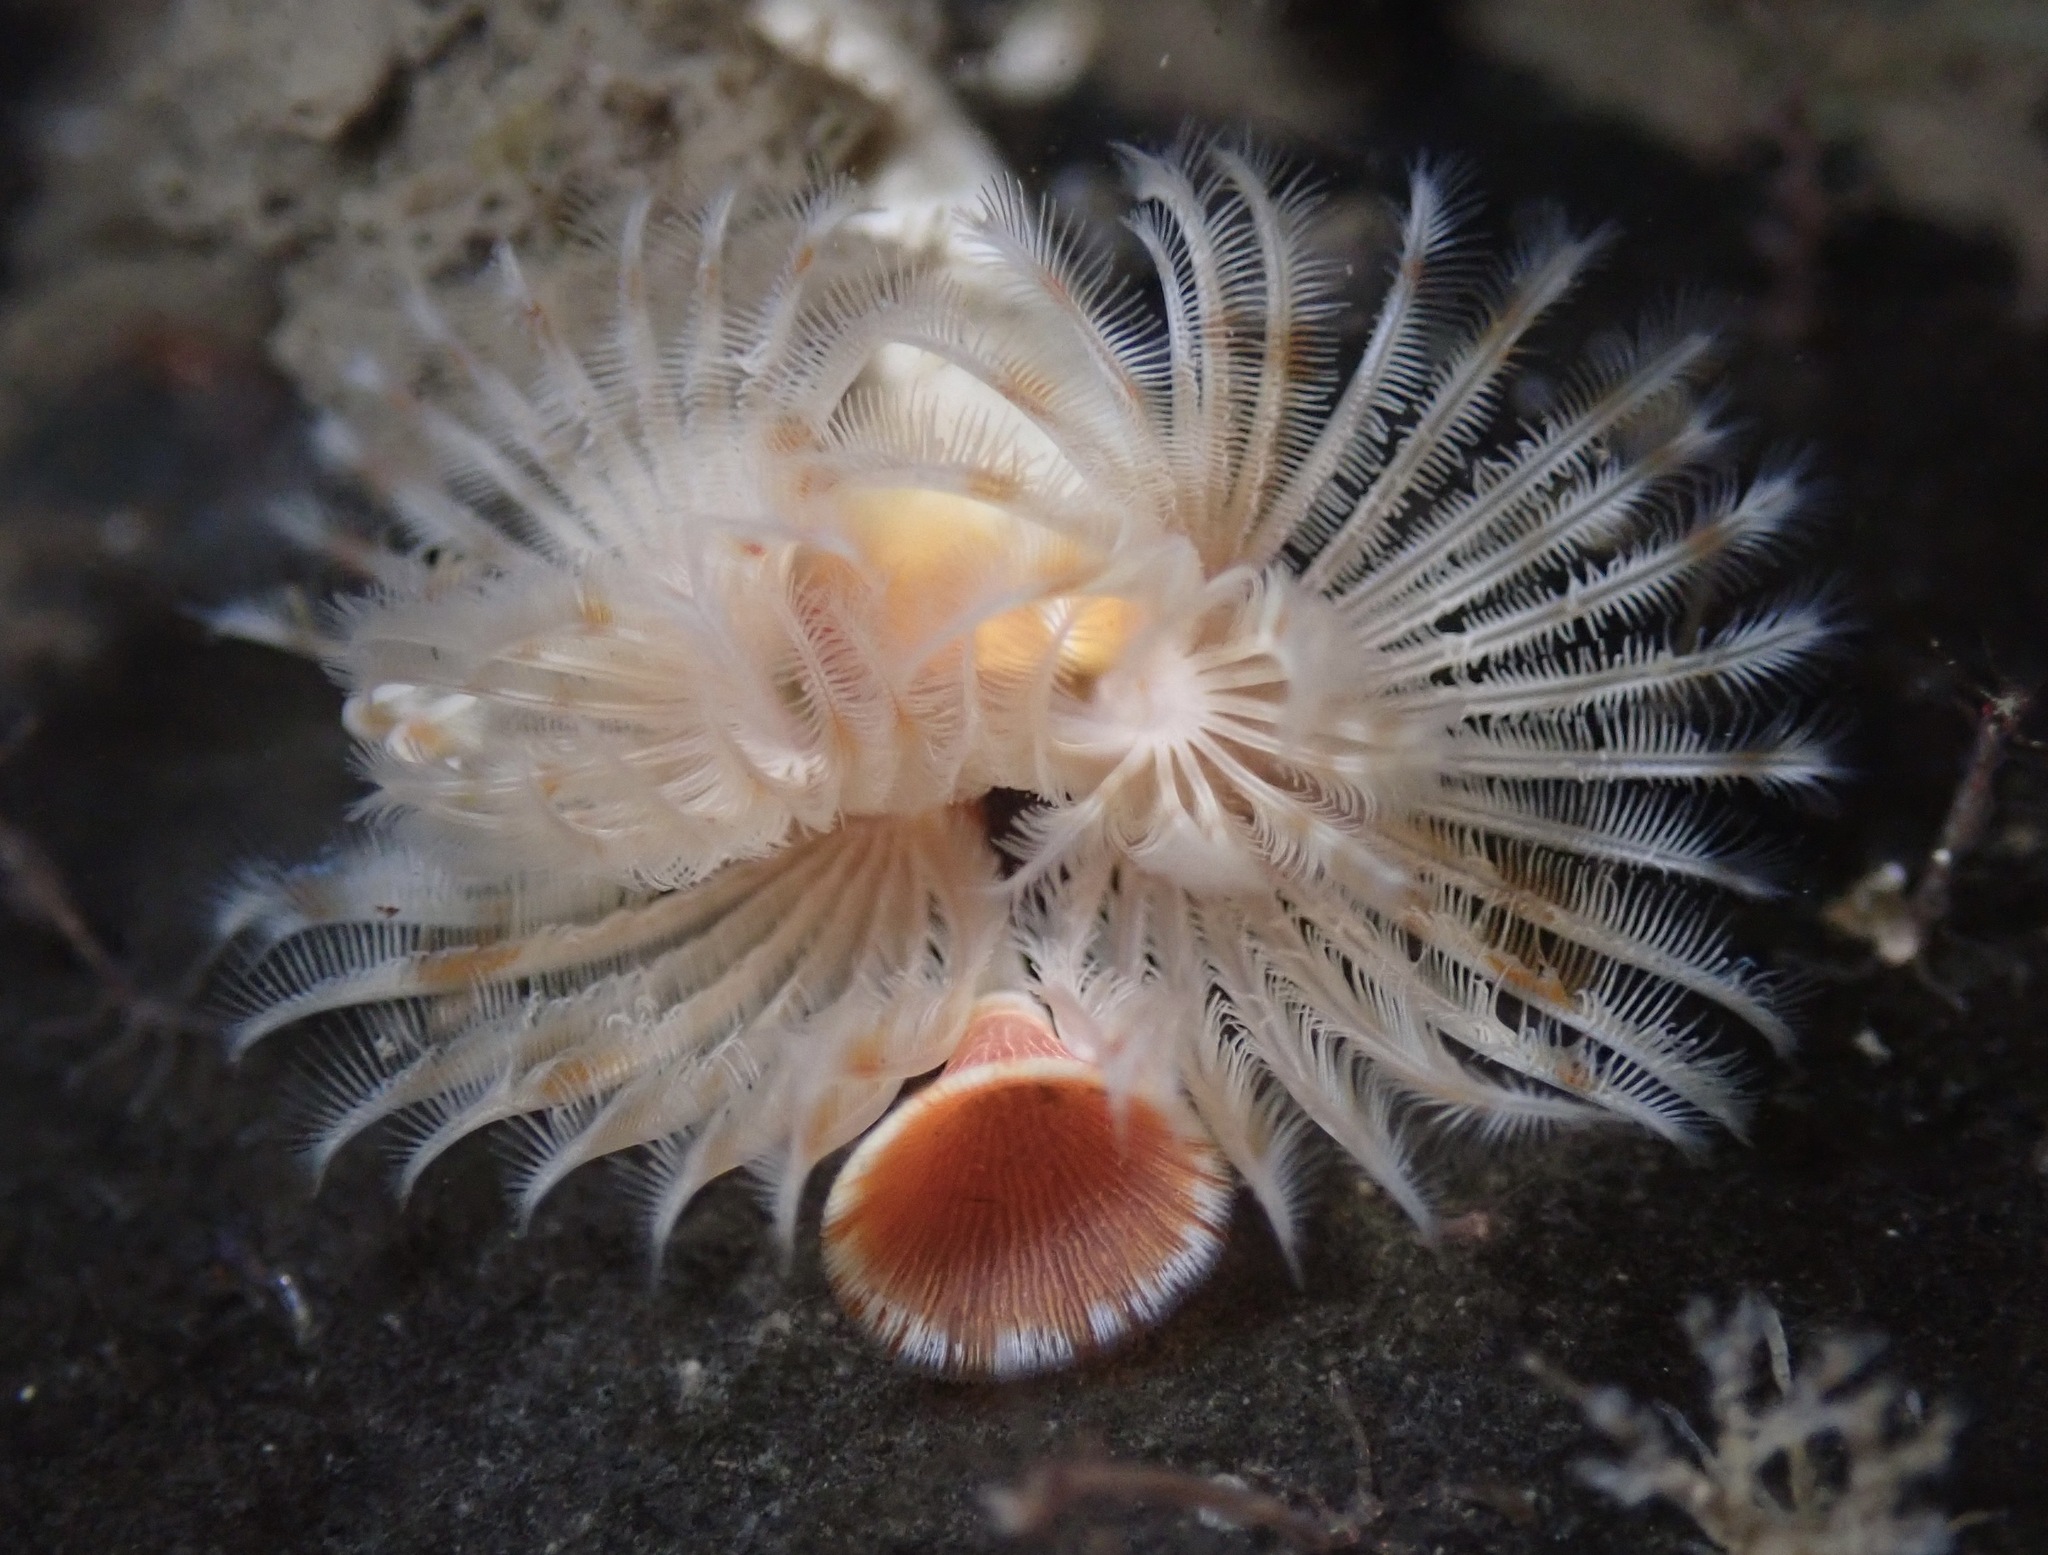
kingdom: Animalia
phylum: Annelida
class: Polychaeta
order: Sabellida
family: Serpulidae
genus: Serpula
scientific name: Serpula columbiana
